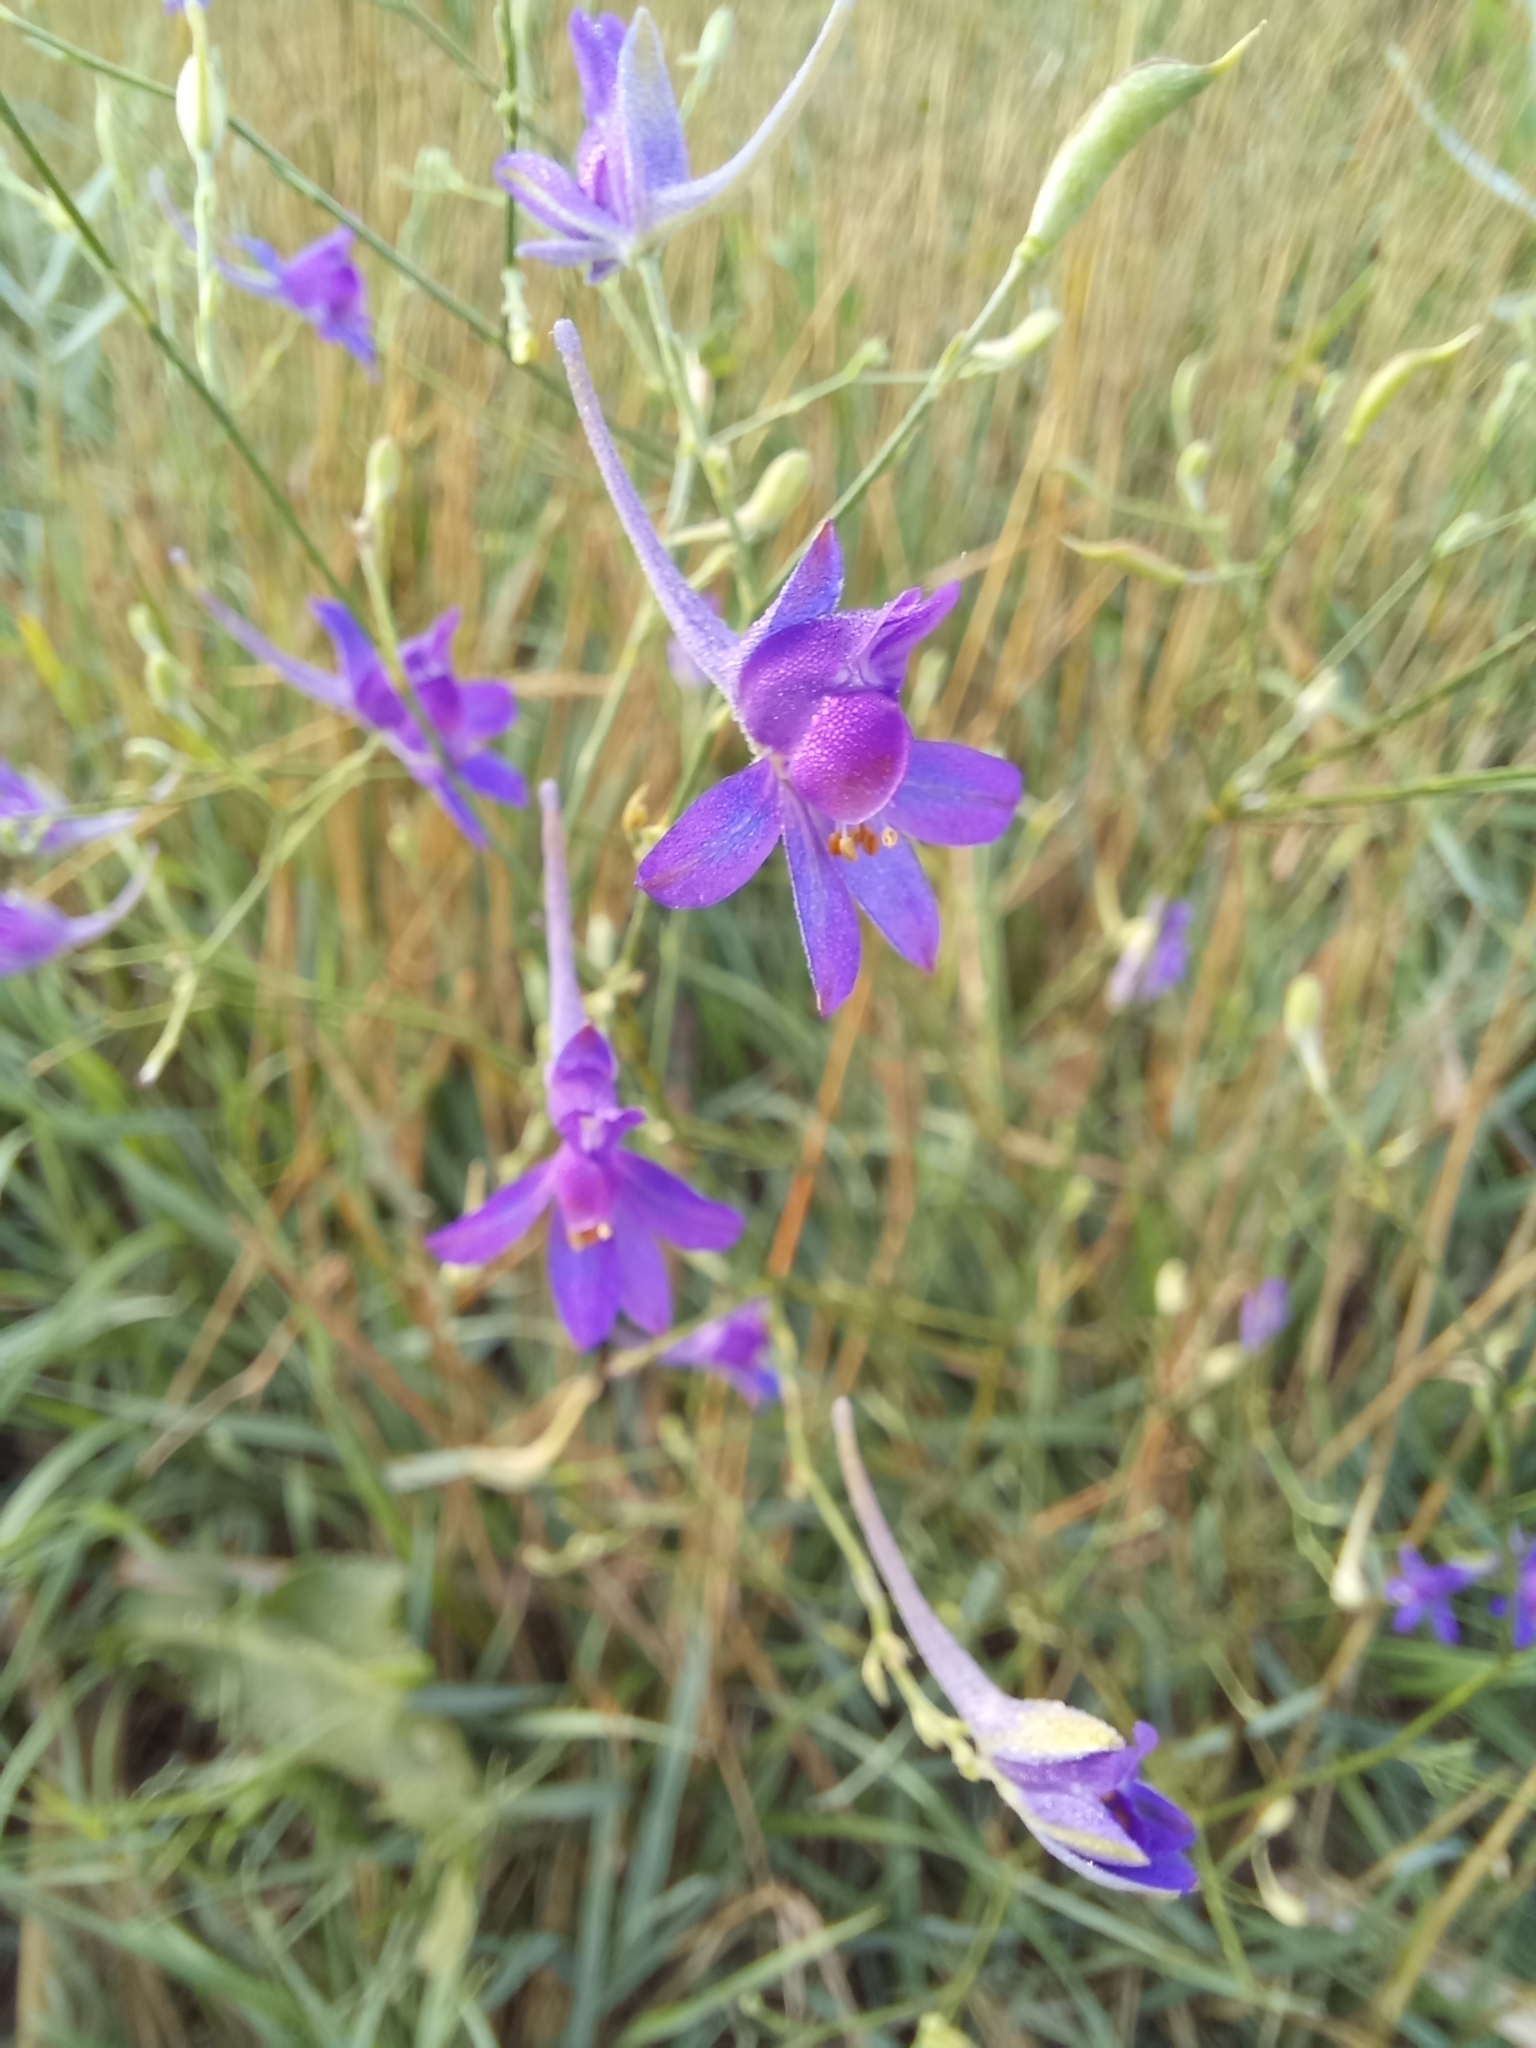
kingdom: Plantae
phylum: Tracheophyta
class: Magnoliopsida
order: Ranunculales
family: Ranunculaceae
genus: Delphinium
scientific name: Delphinium consolida
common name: Branching larkspur
